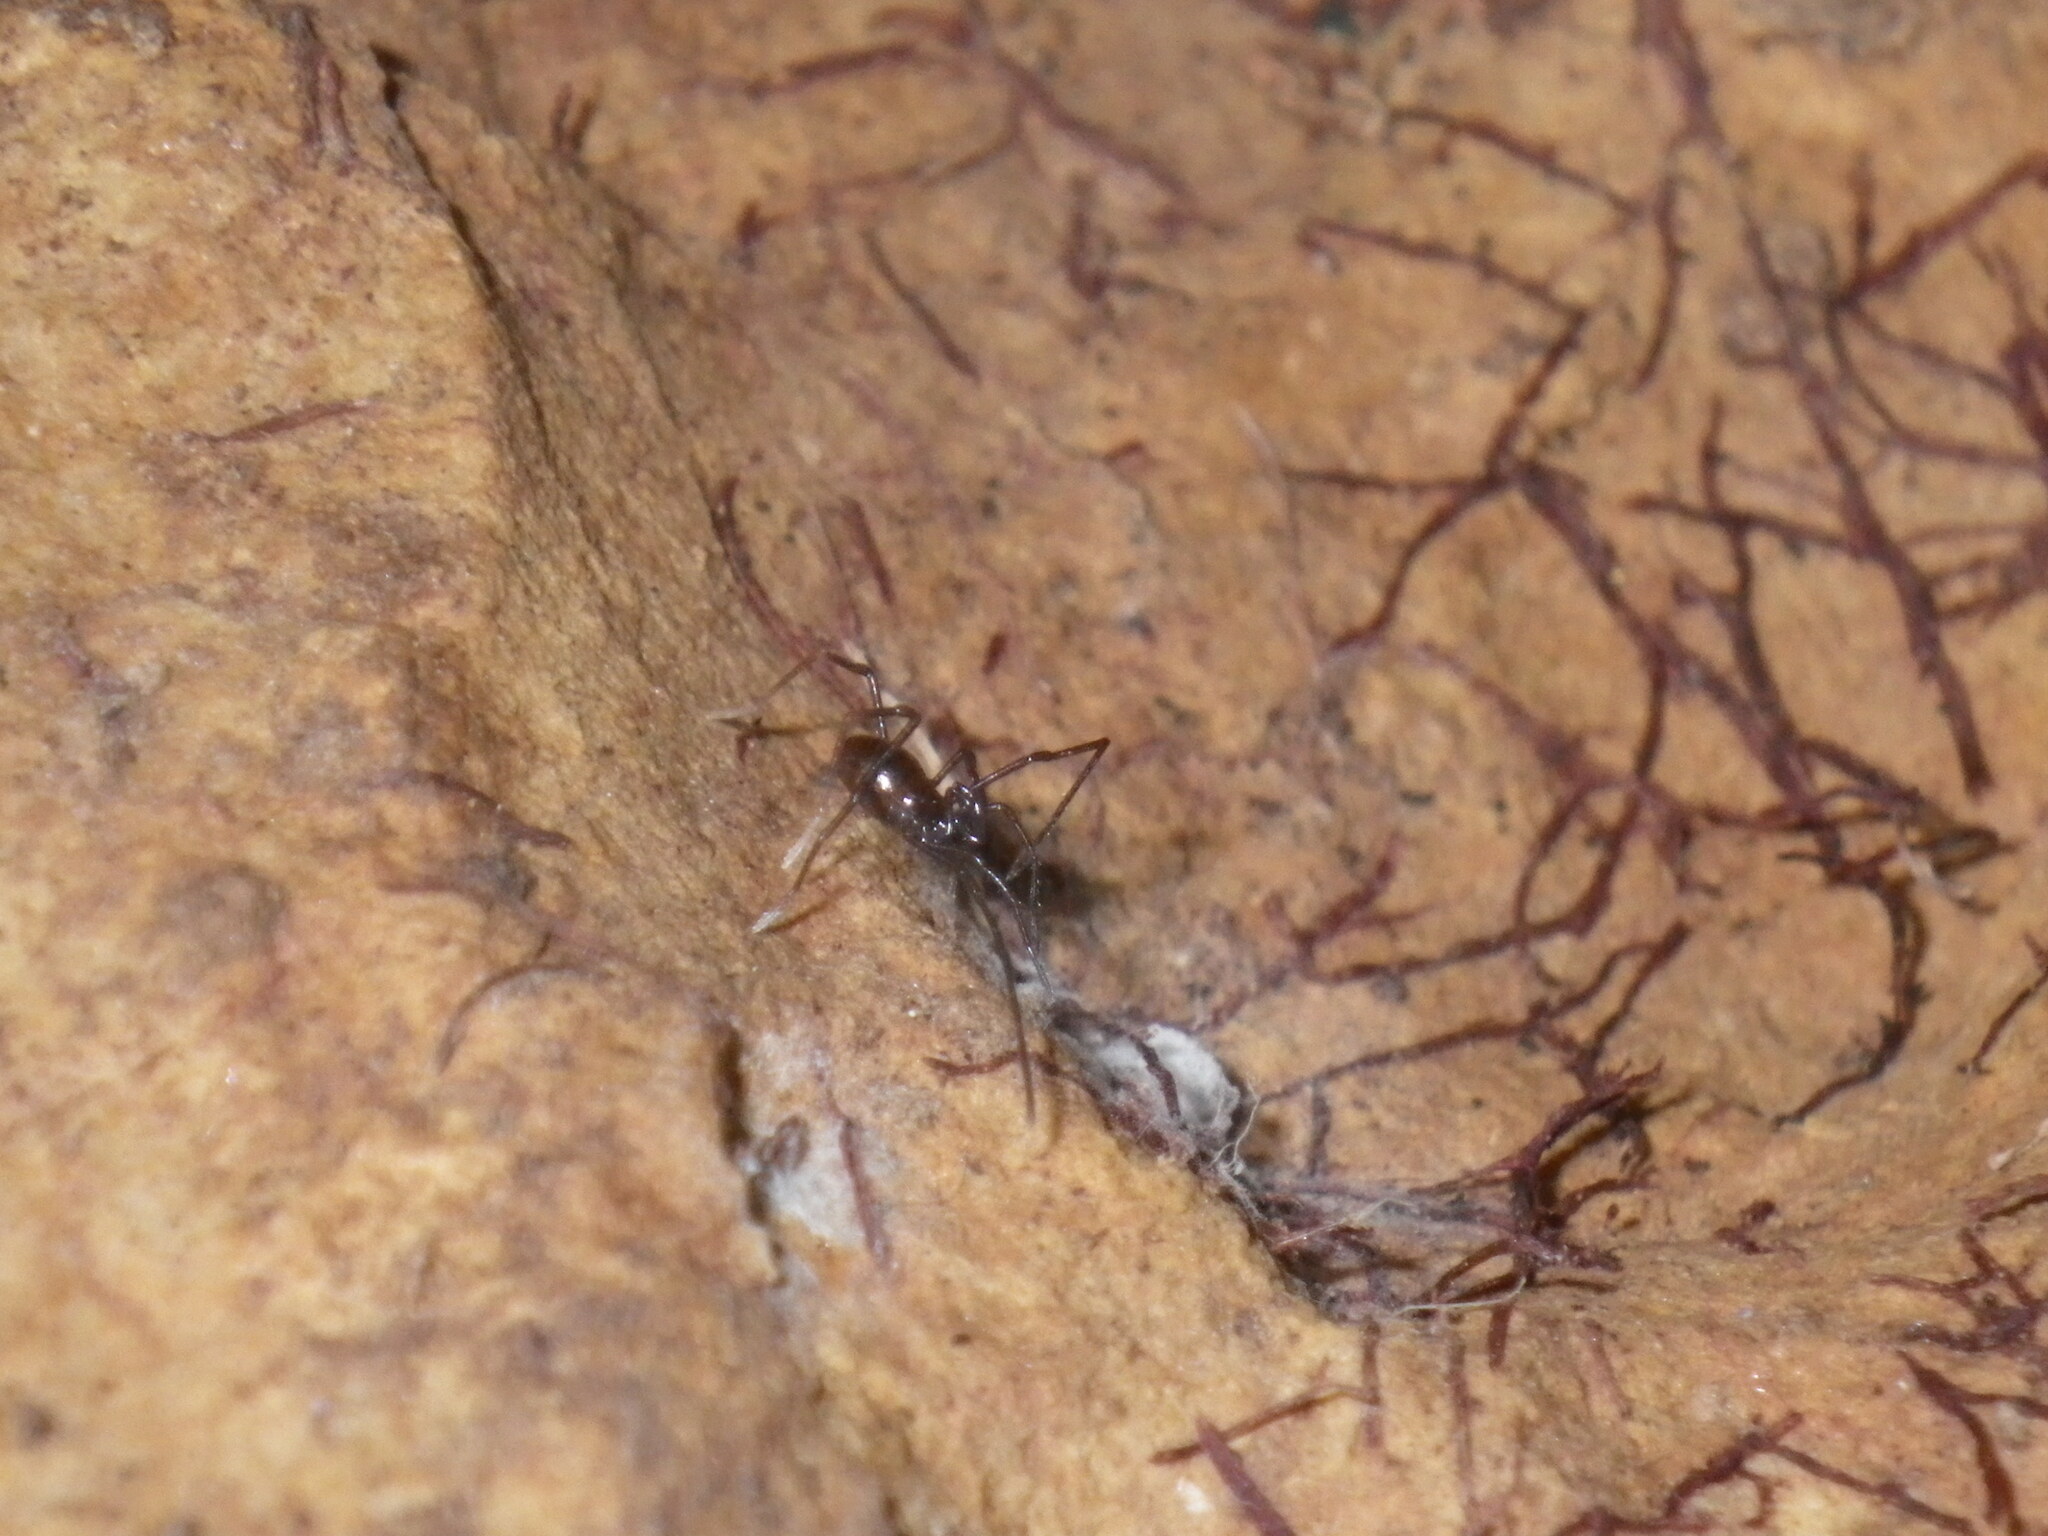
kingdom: Animalia
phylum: Arthropoda
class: Arachnida
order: Opiliones
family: Cosmetidae
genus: Libitioides
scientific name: Libitioides sayi
